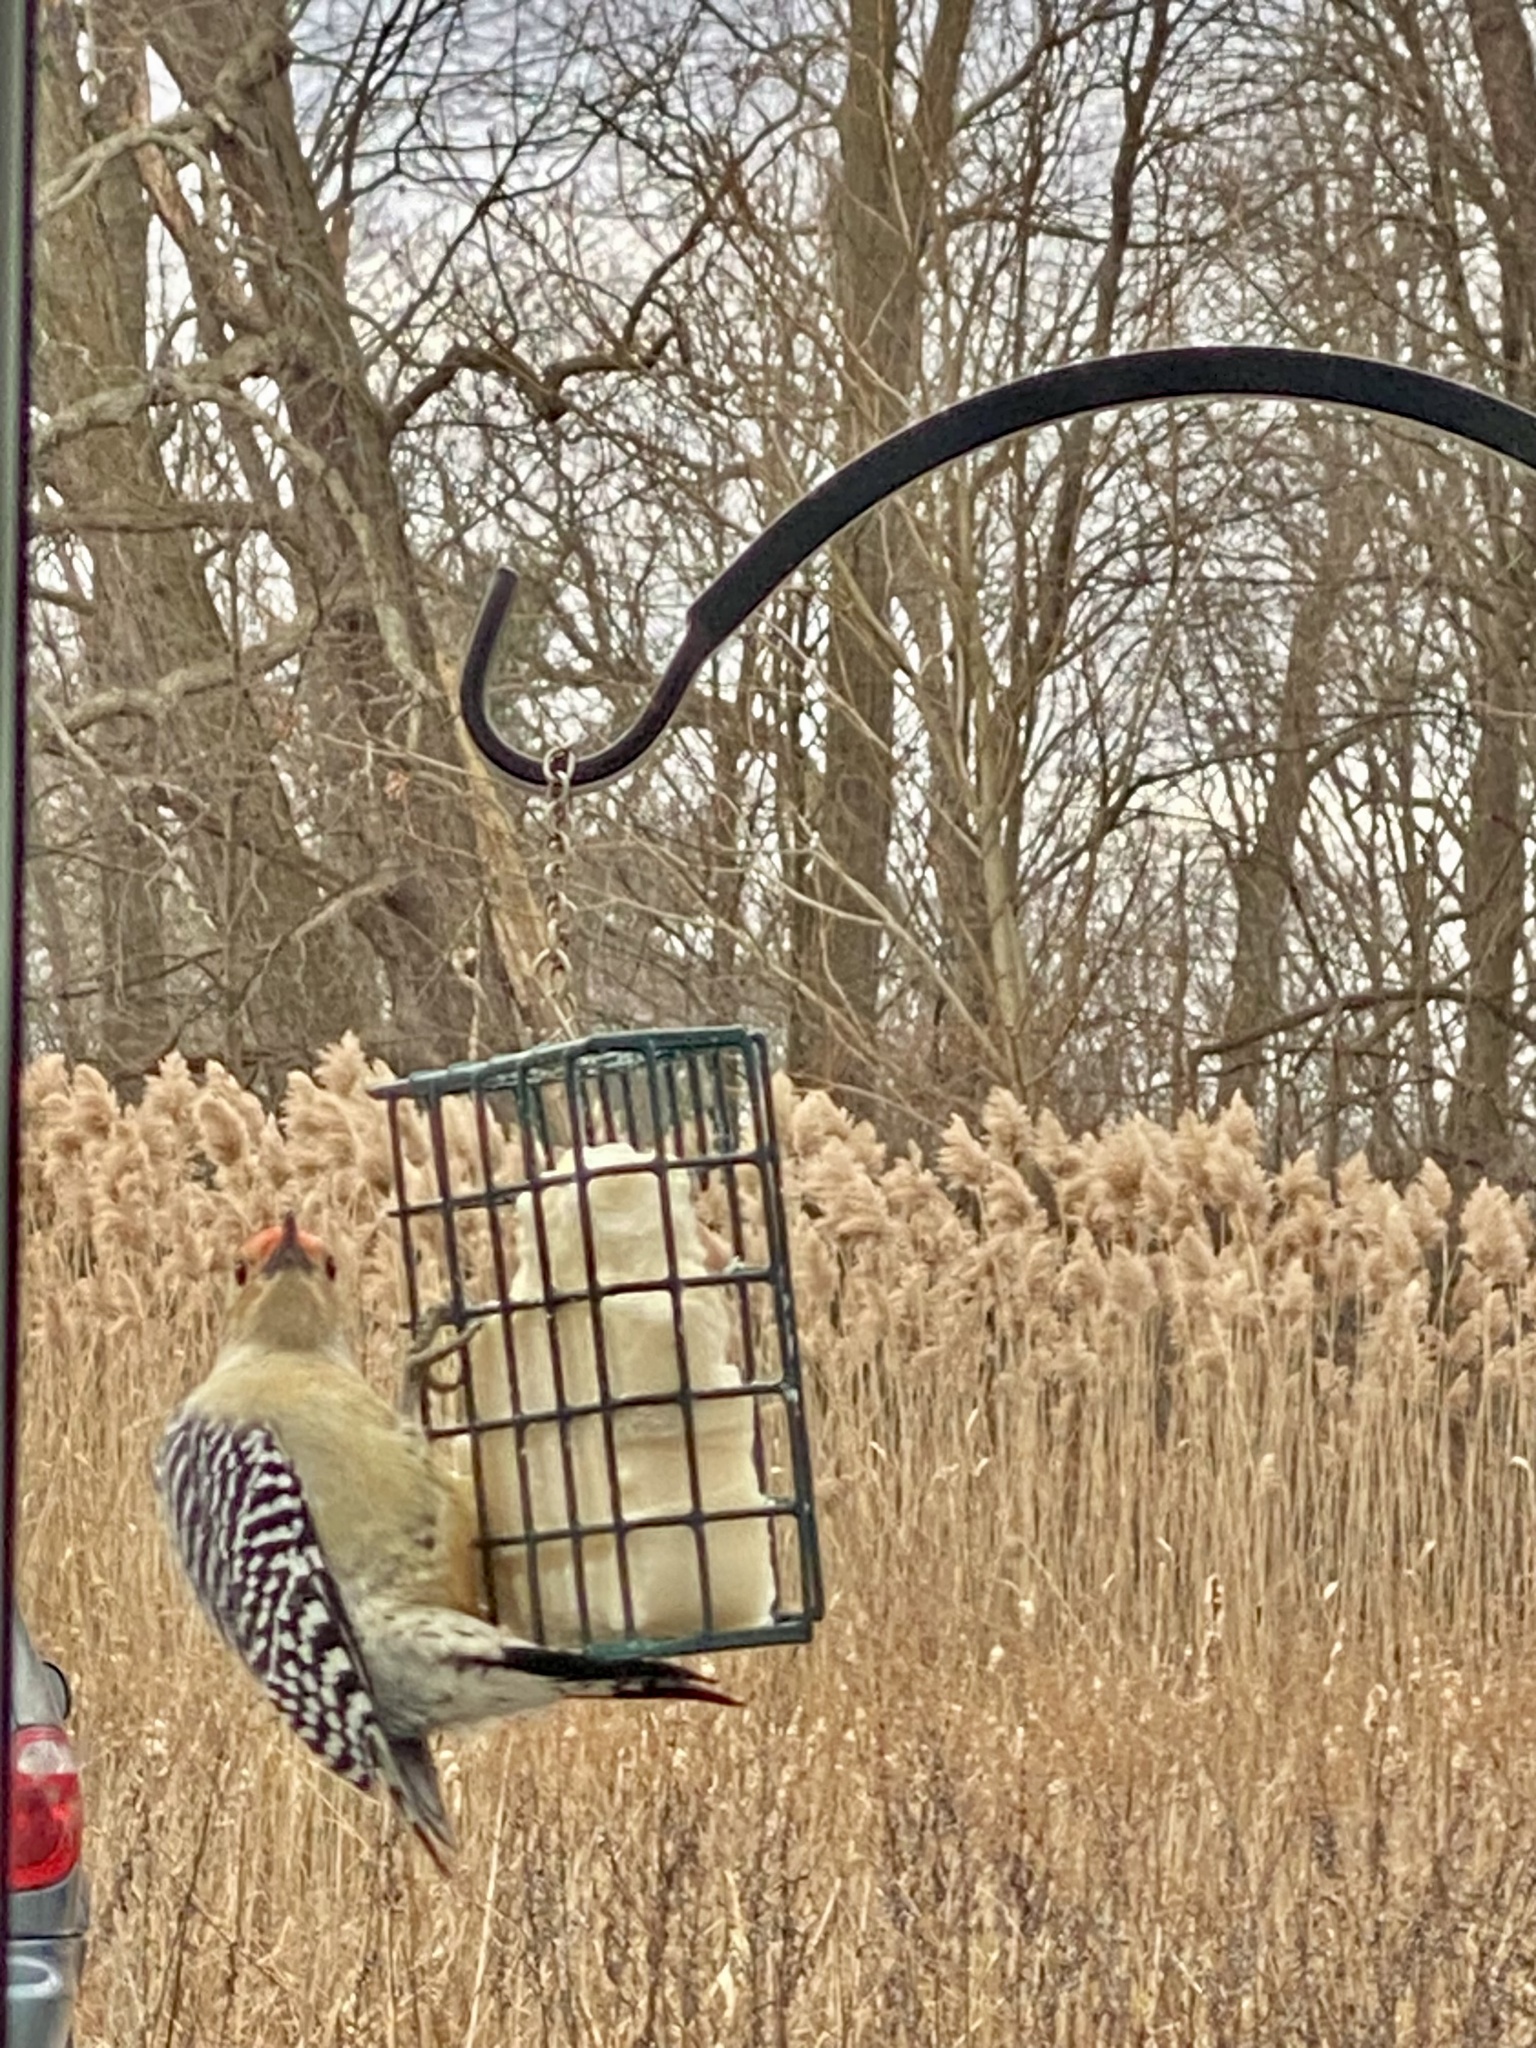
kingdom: Animalia
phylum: Chordata
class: Aves
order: Piciformes
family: Picidae
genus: Melanerpes
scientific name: Melanerpes carolinus
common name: Red-bellied woodpecker
